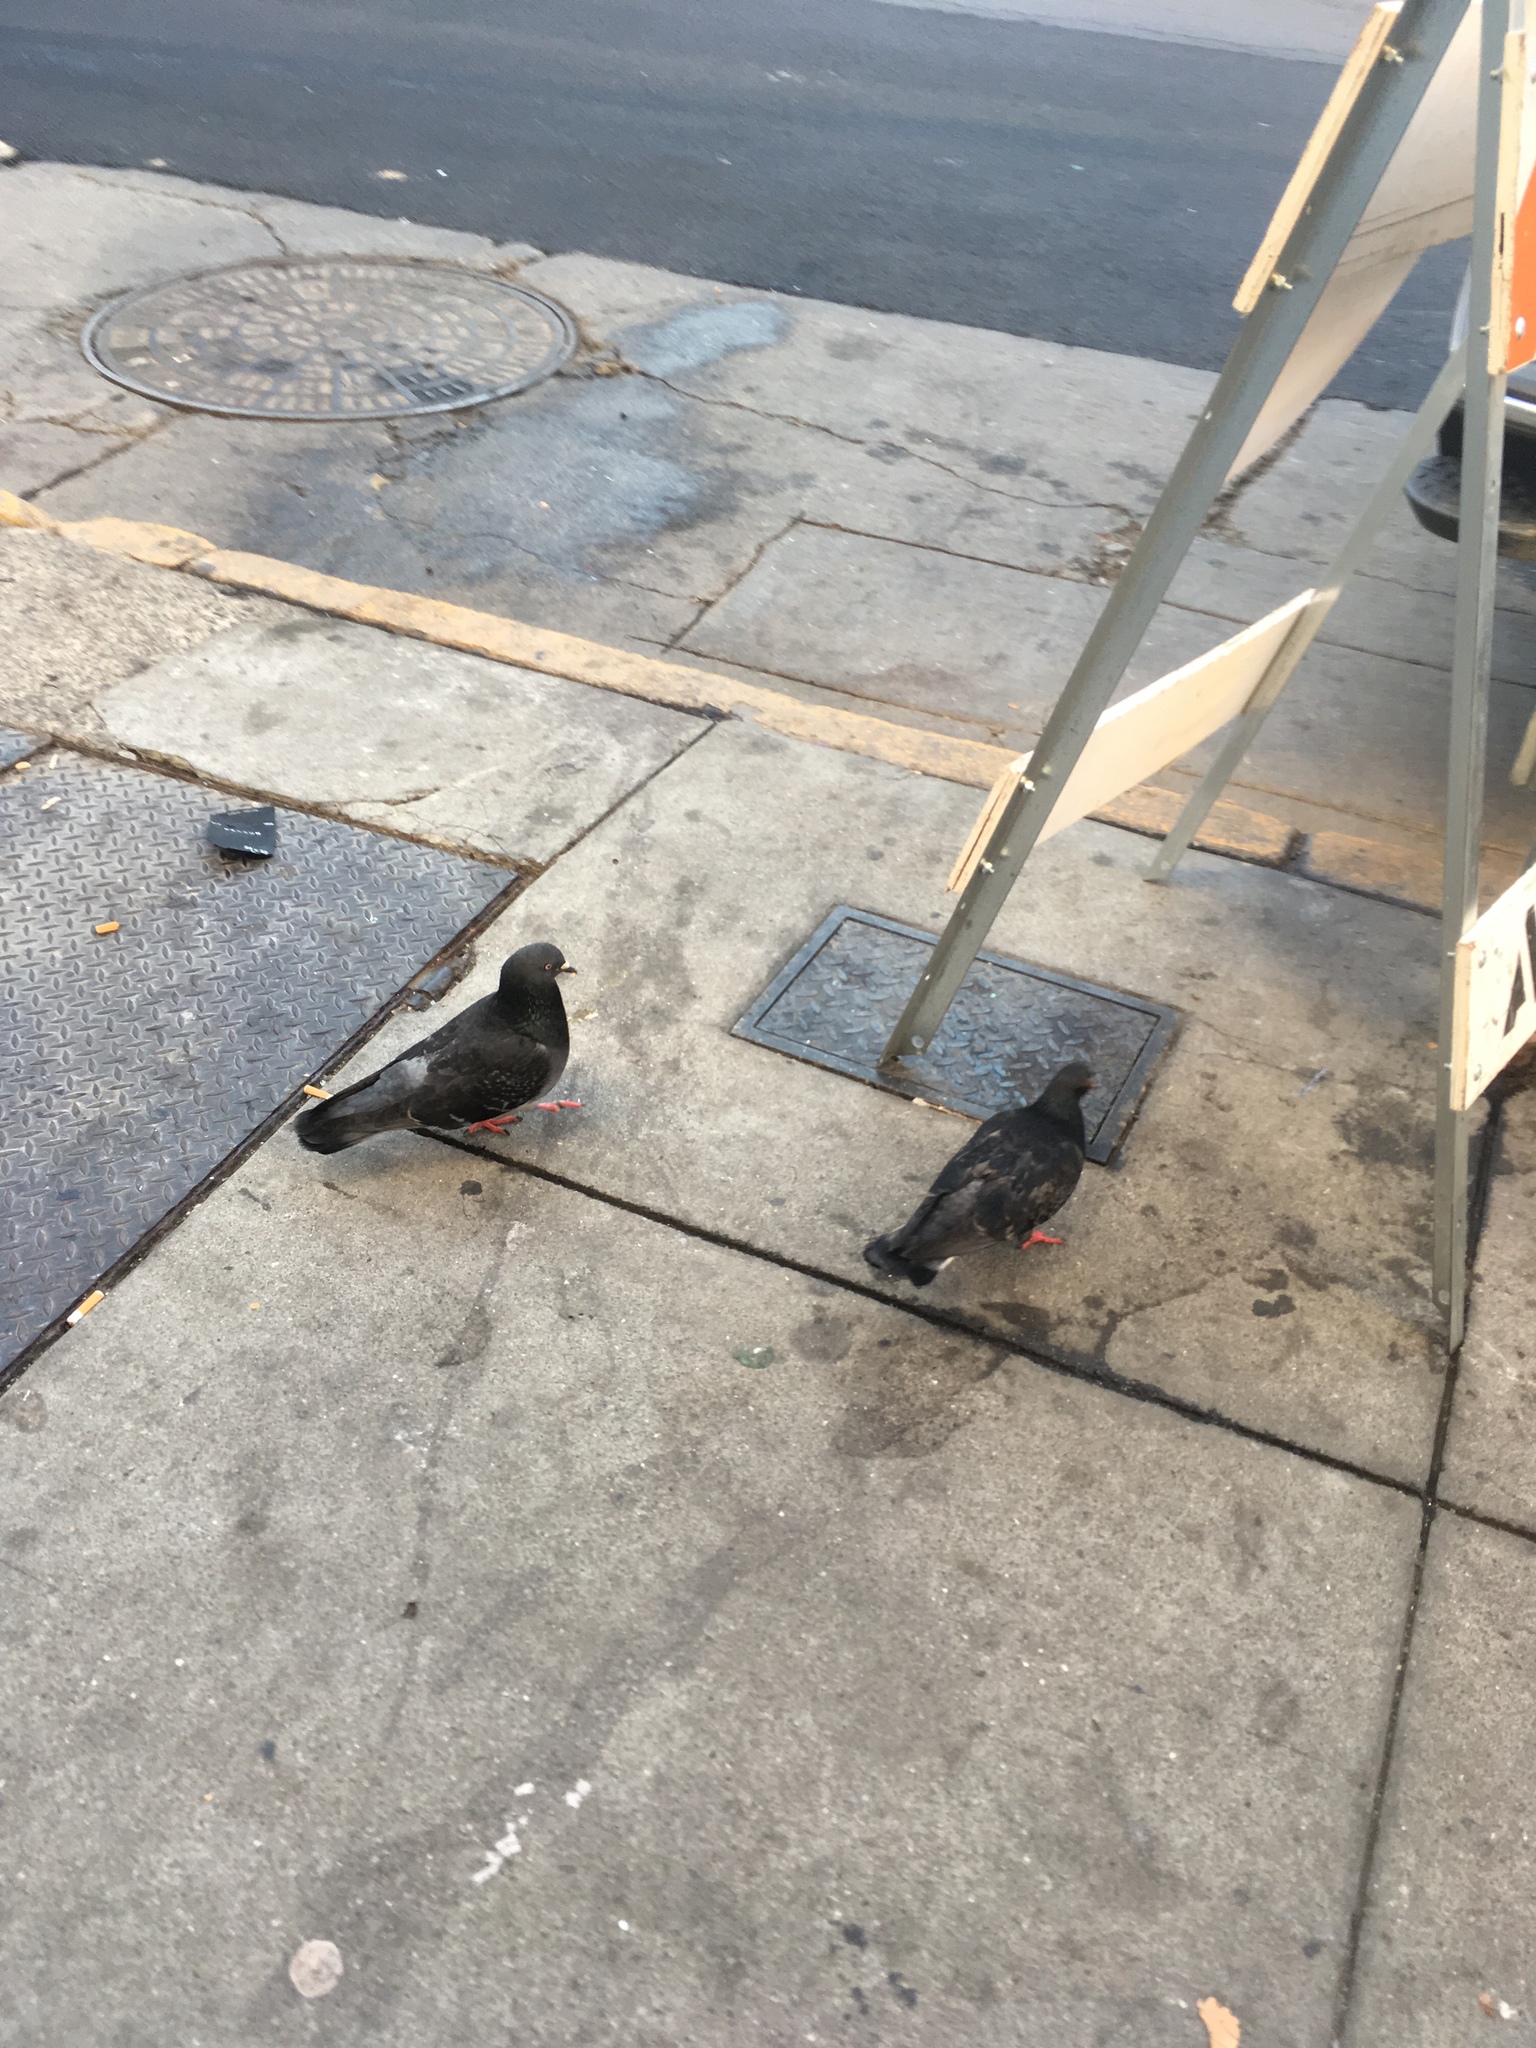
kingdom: Animalia
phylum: Chordata
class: Aves
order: Columbiformes
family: Columbidae
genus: Columba
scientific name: Columba livia
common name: Rock pigeon
